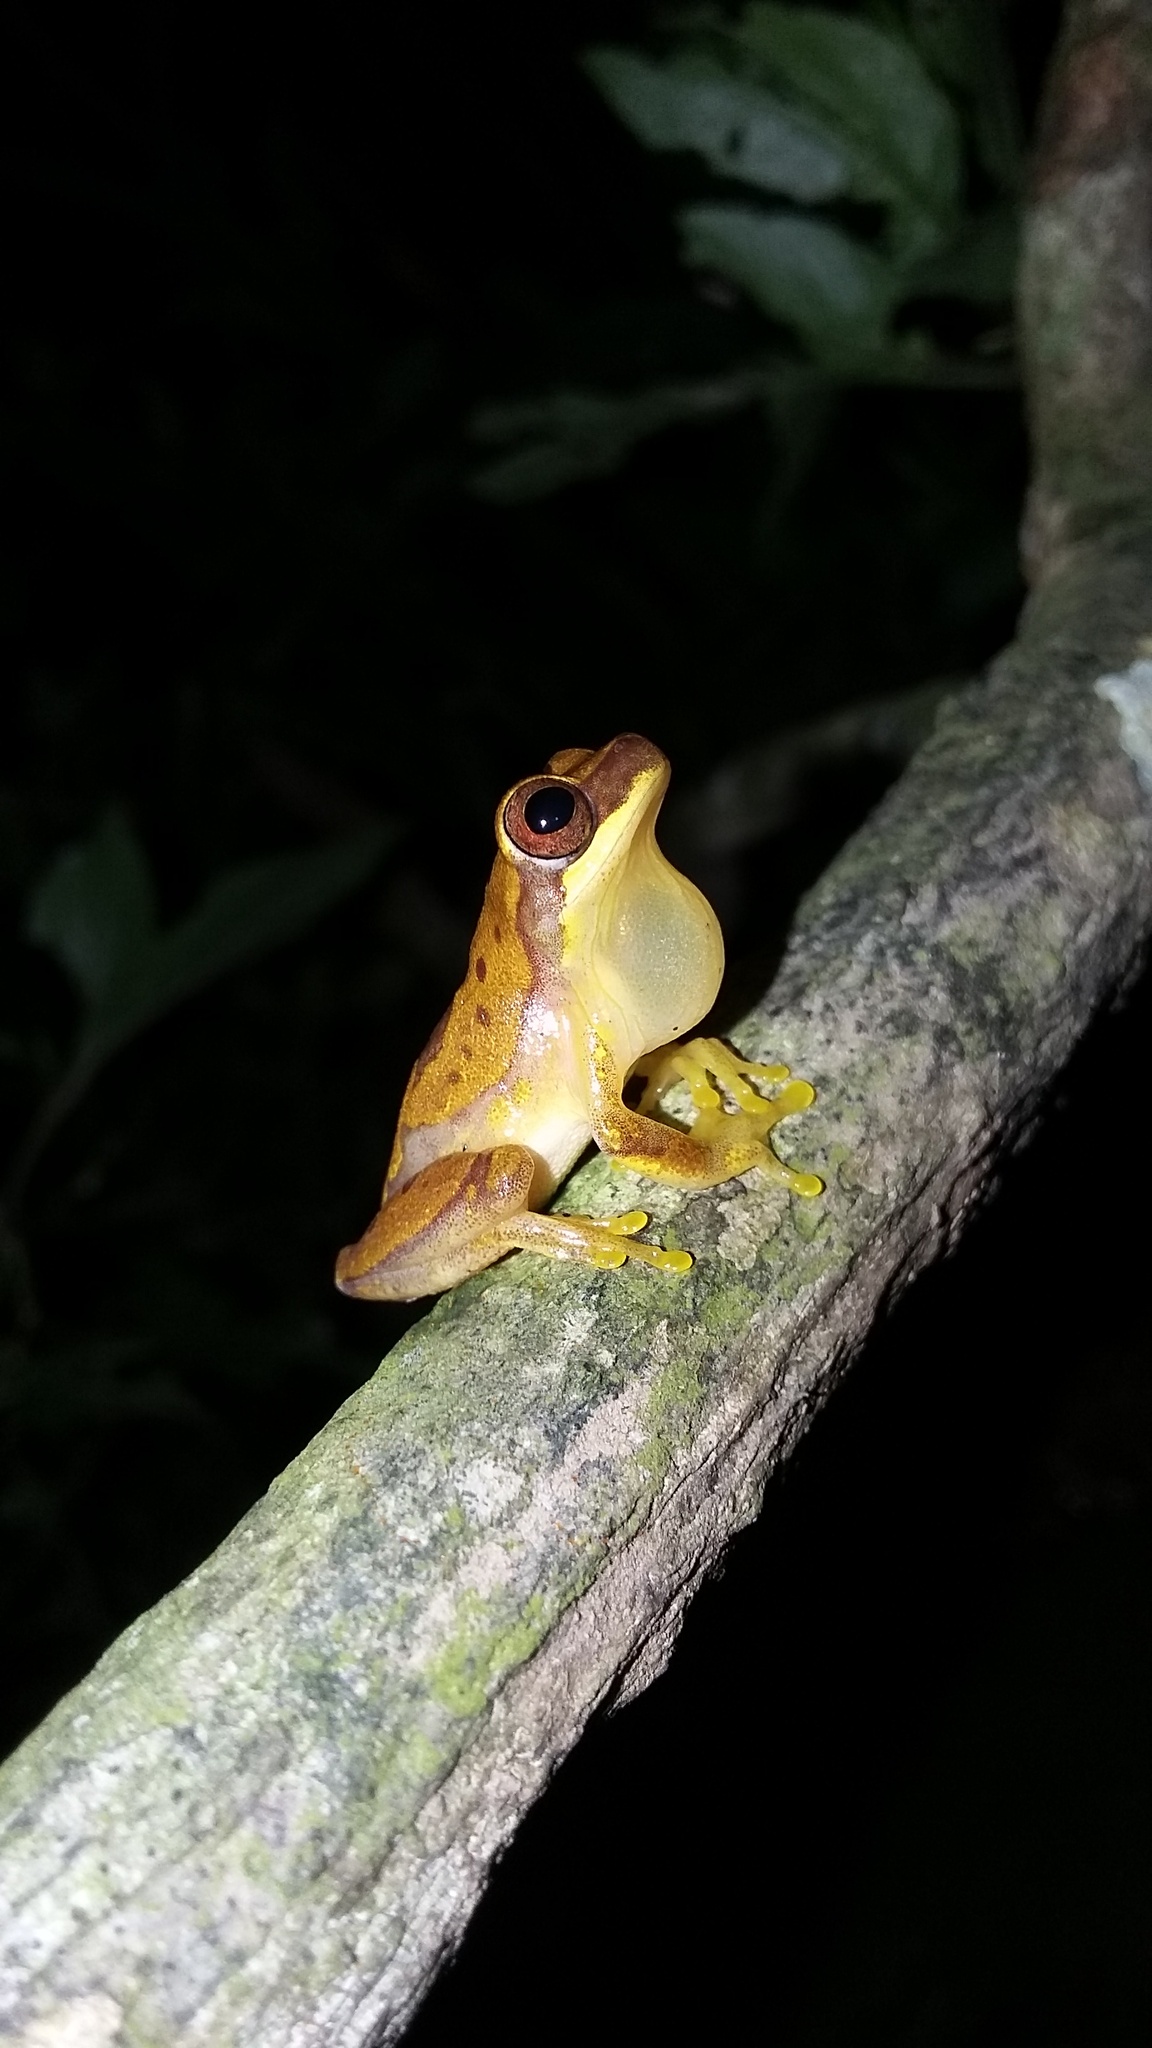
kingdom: Animalia
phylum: Chordata
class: Amphibia
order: Anura
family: Hylidae
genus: Dendropsophus
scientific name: Dendropsophus ebraccatus
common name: Hourglass treefrog
